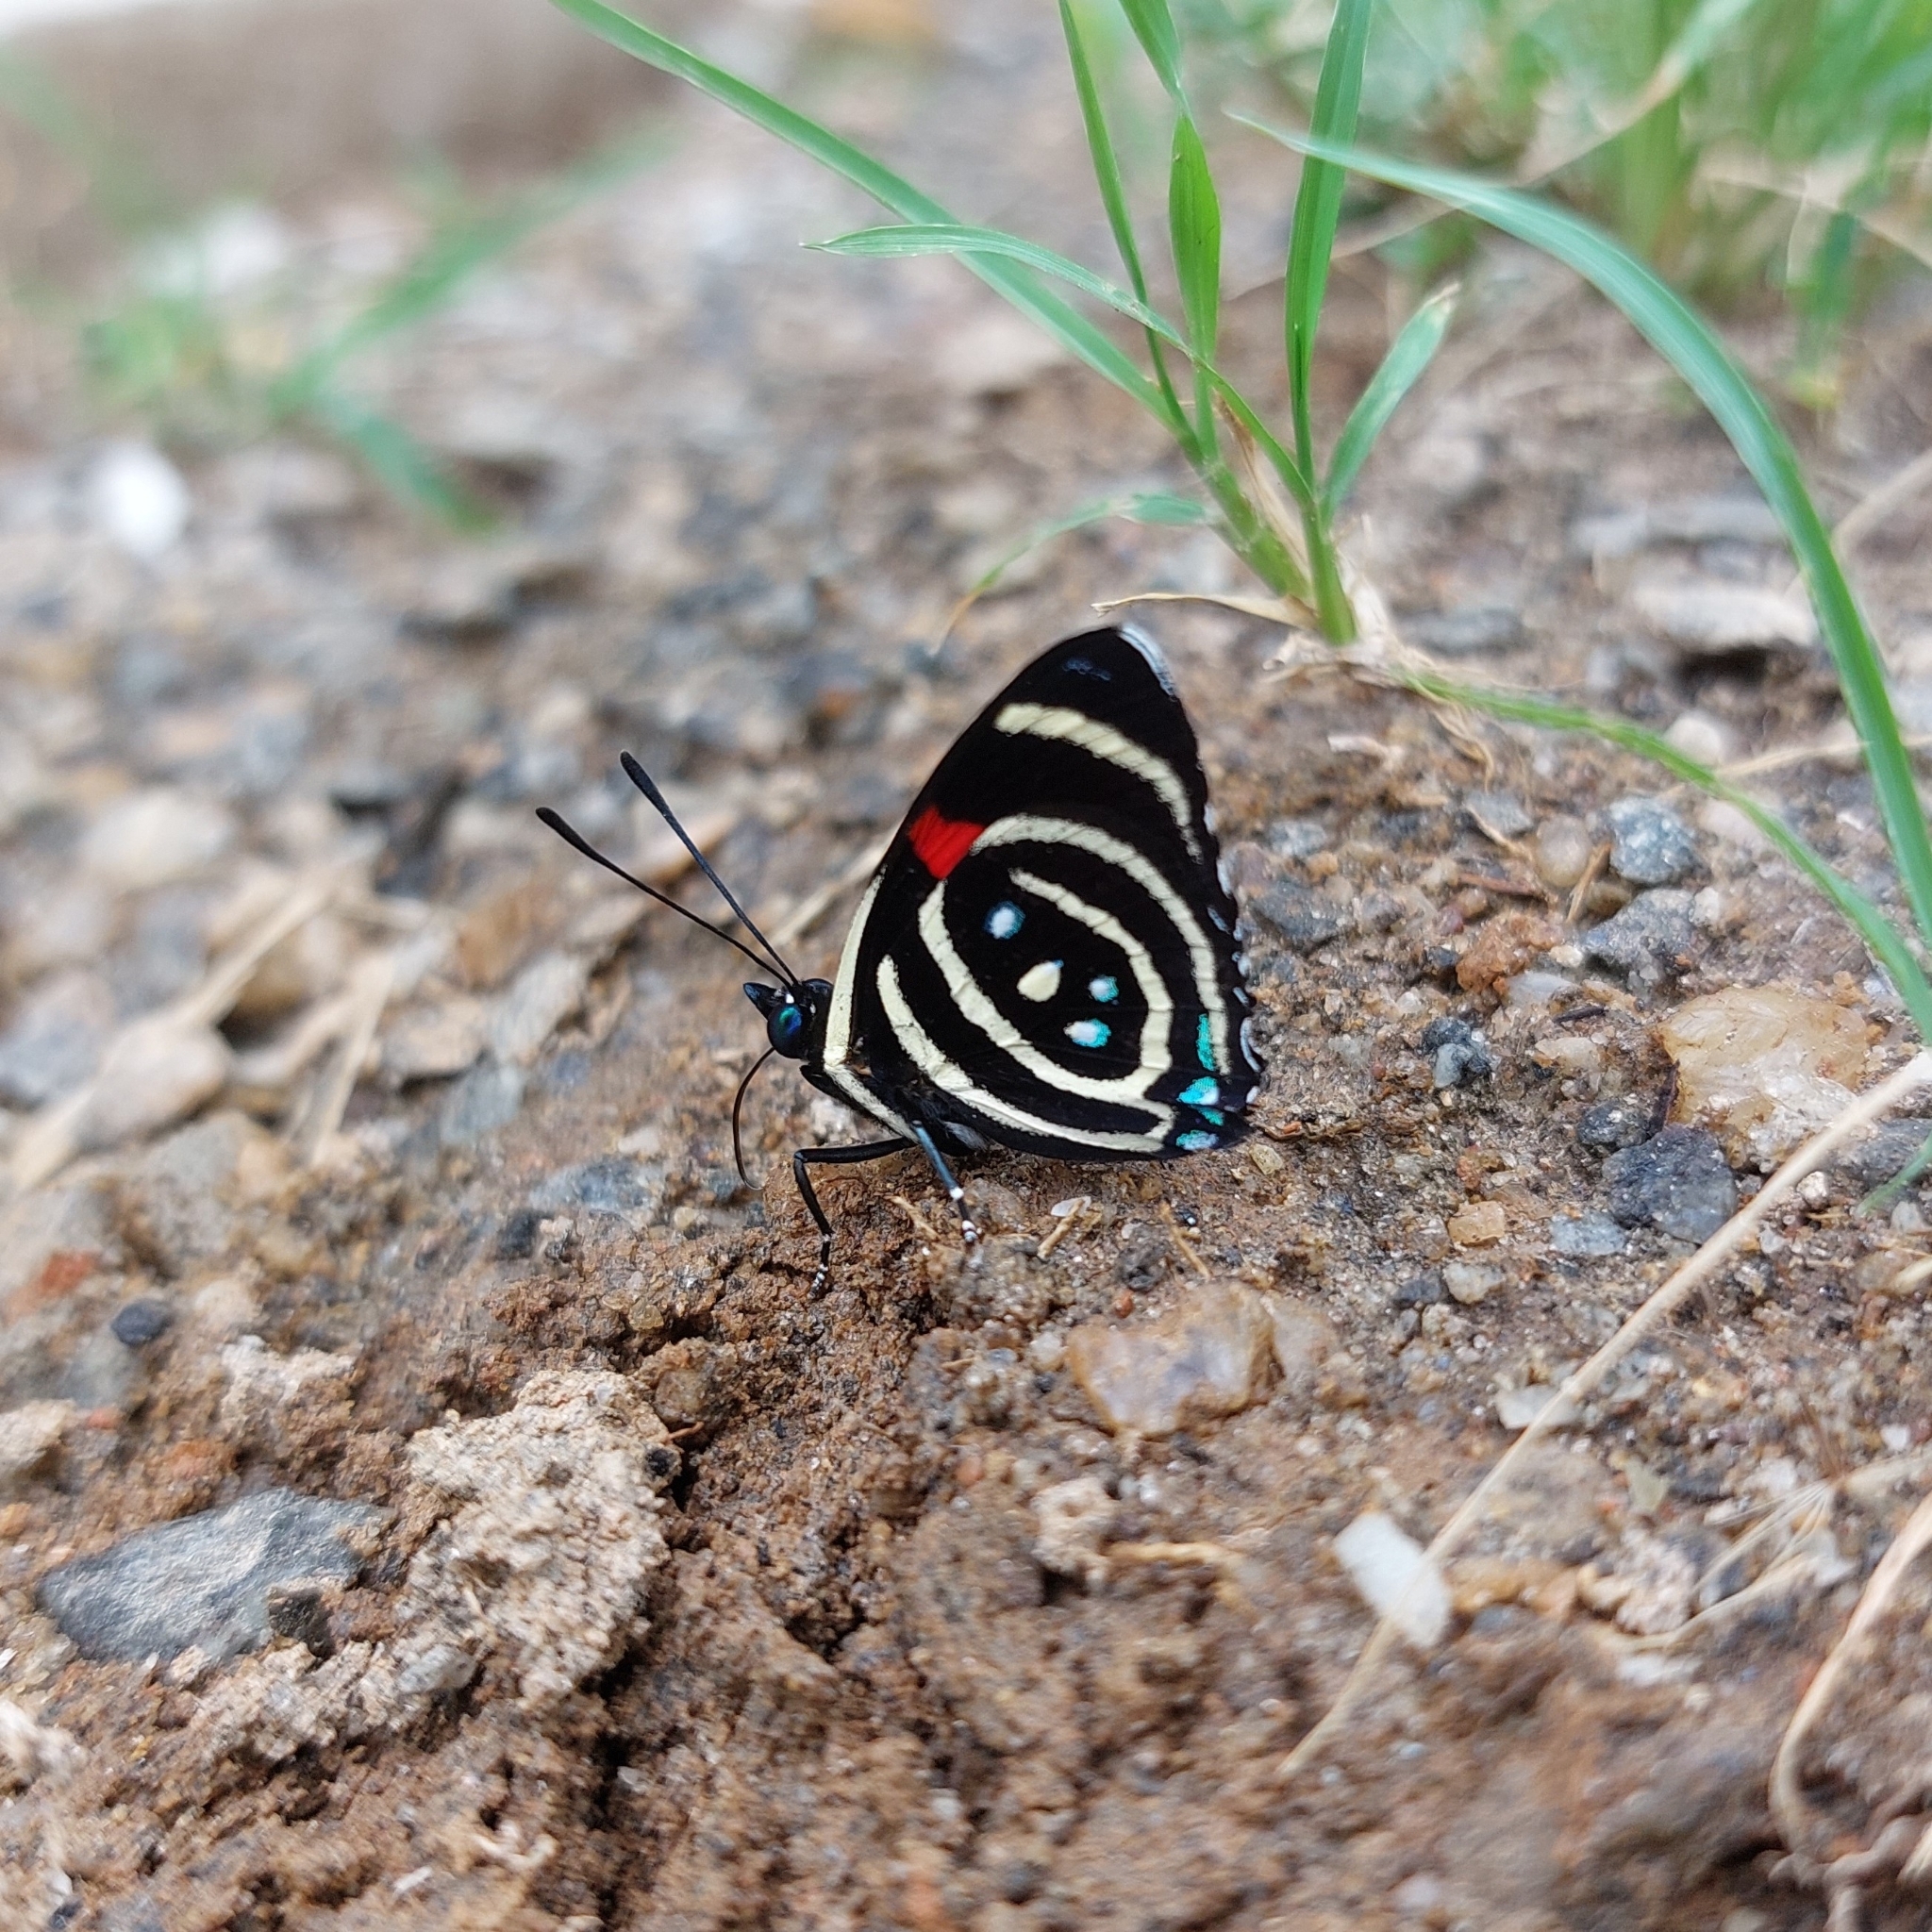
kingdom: Animalia
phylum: Arthropoda
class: Insecta
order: Lepidoptera
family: Nymphalidae
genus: Catagramma
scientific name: Catagramma Callicore hydaspes
